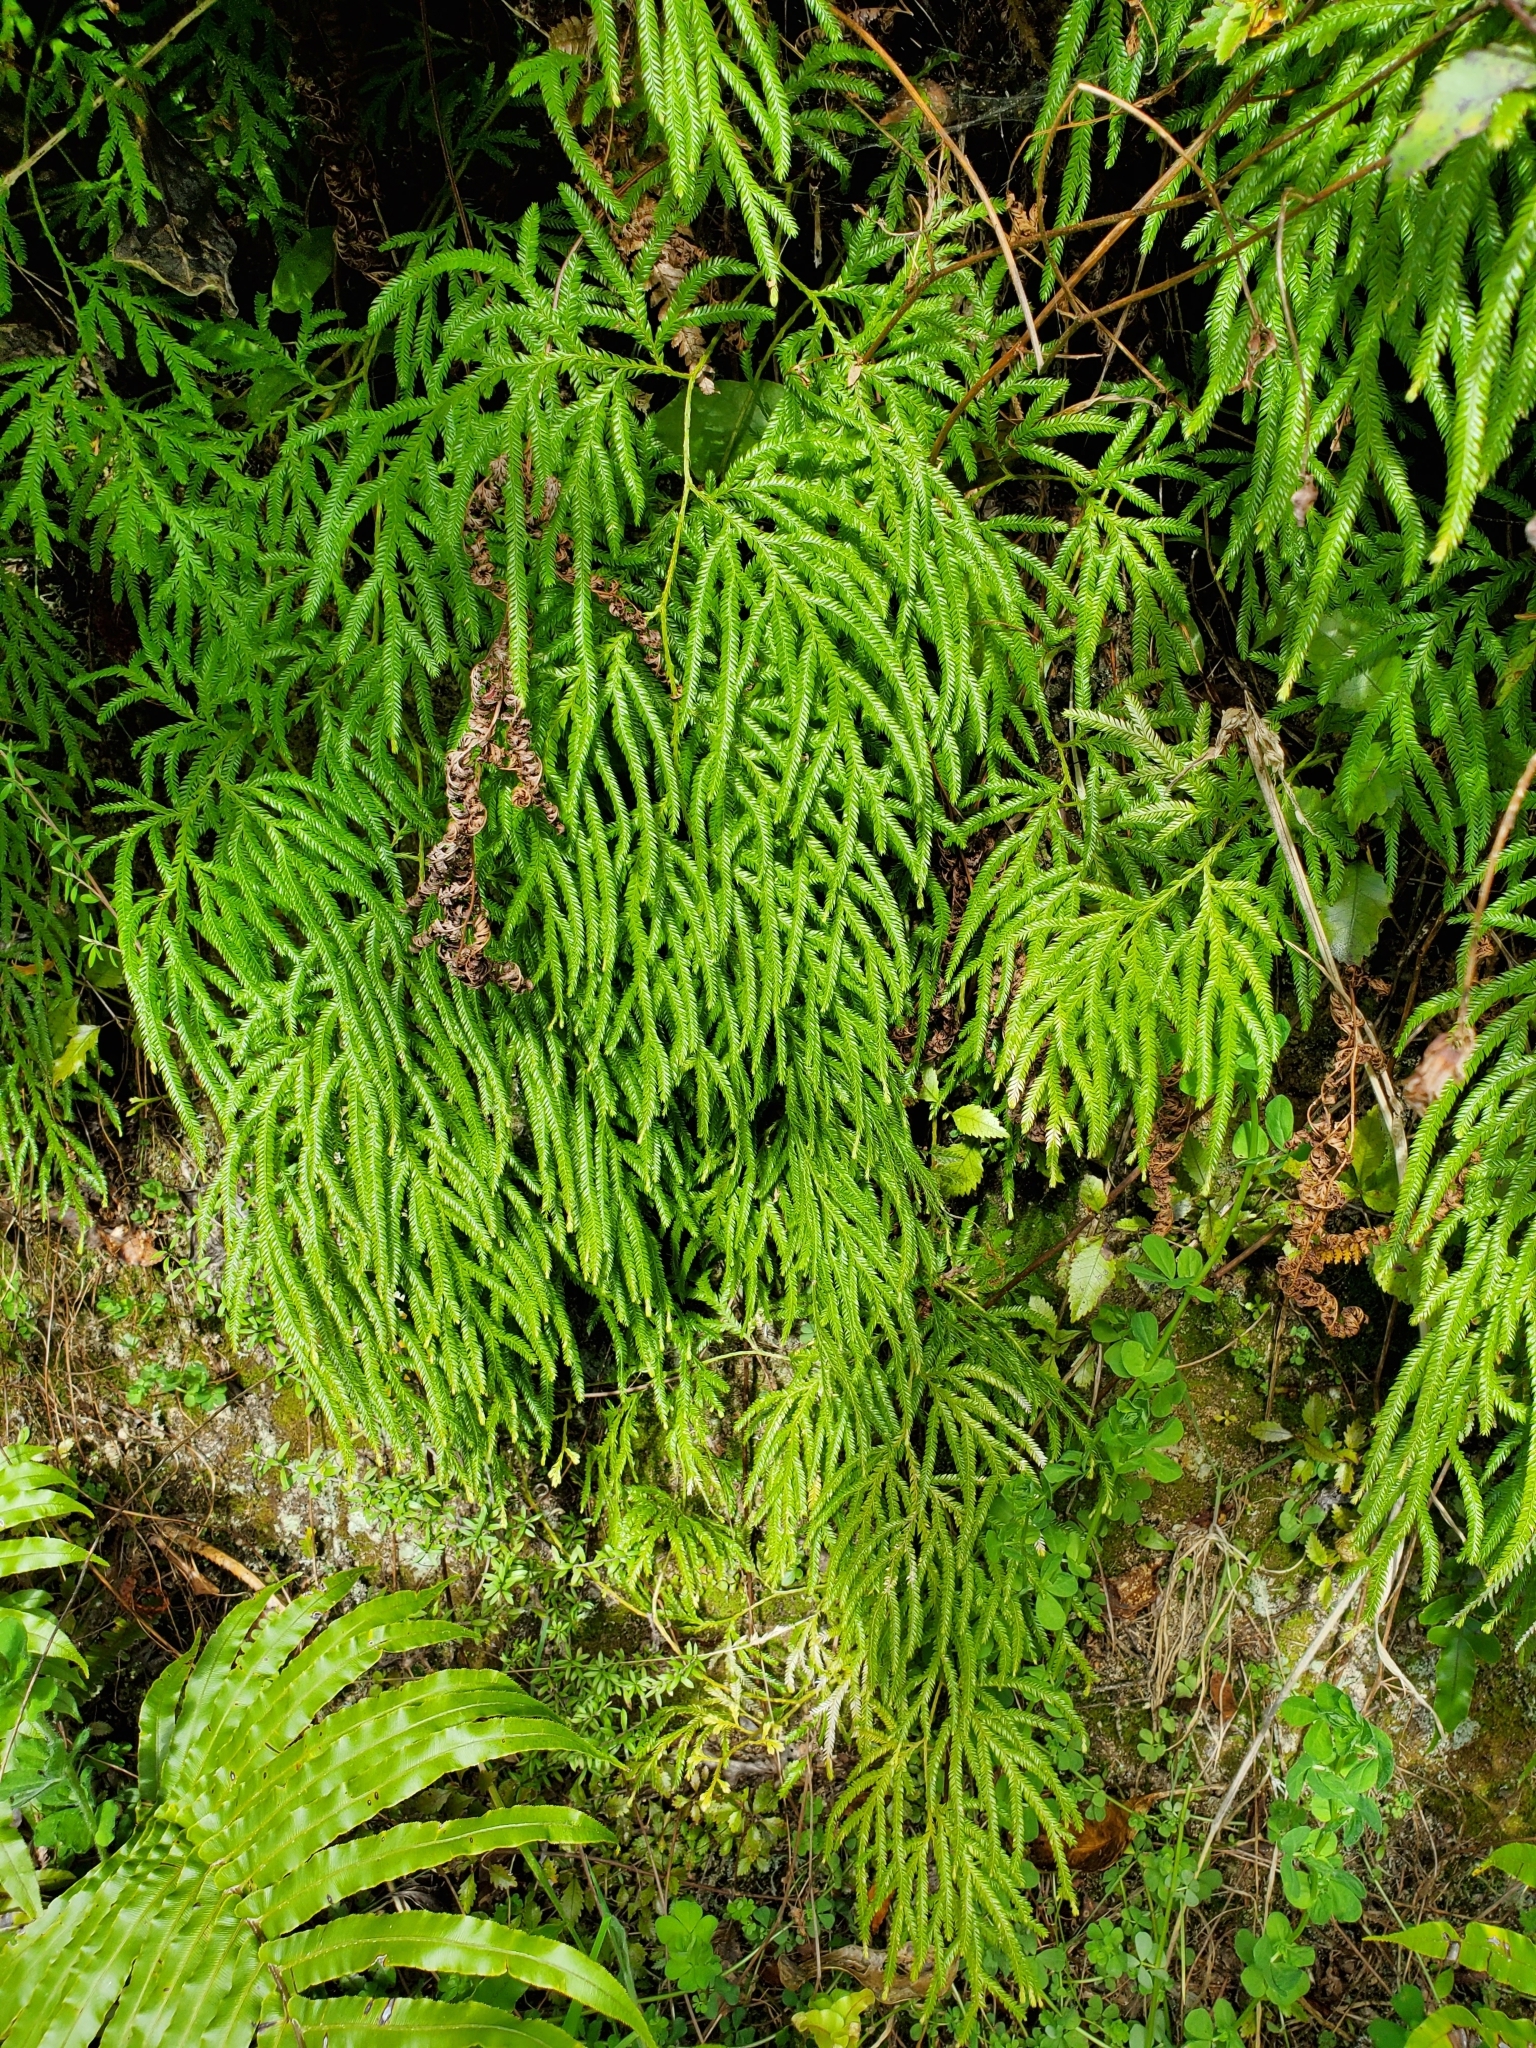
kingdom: Plantae
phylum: Tracheophyta
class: Lycopodiopsida
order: Lycopodiales
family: Lycopodiaceae
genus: Lycopodium
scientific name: Lycopodium volubile
